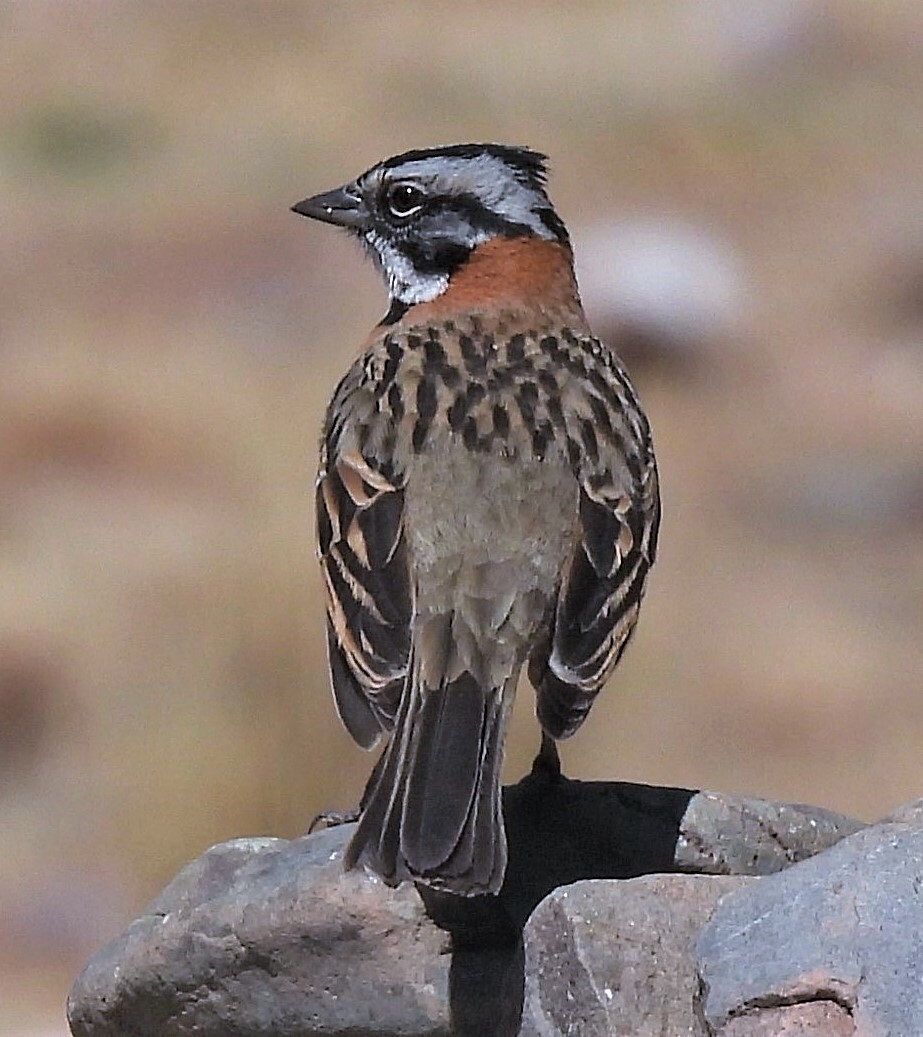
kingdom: Animalia
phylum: Chordata
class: Aves
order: Passeriformes
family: Passerellidae
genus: Zonotrichia
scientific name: Zonotrichia capensis
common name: Rufous-collared sparrow
